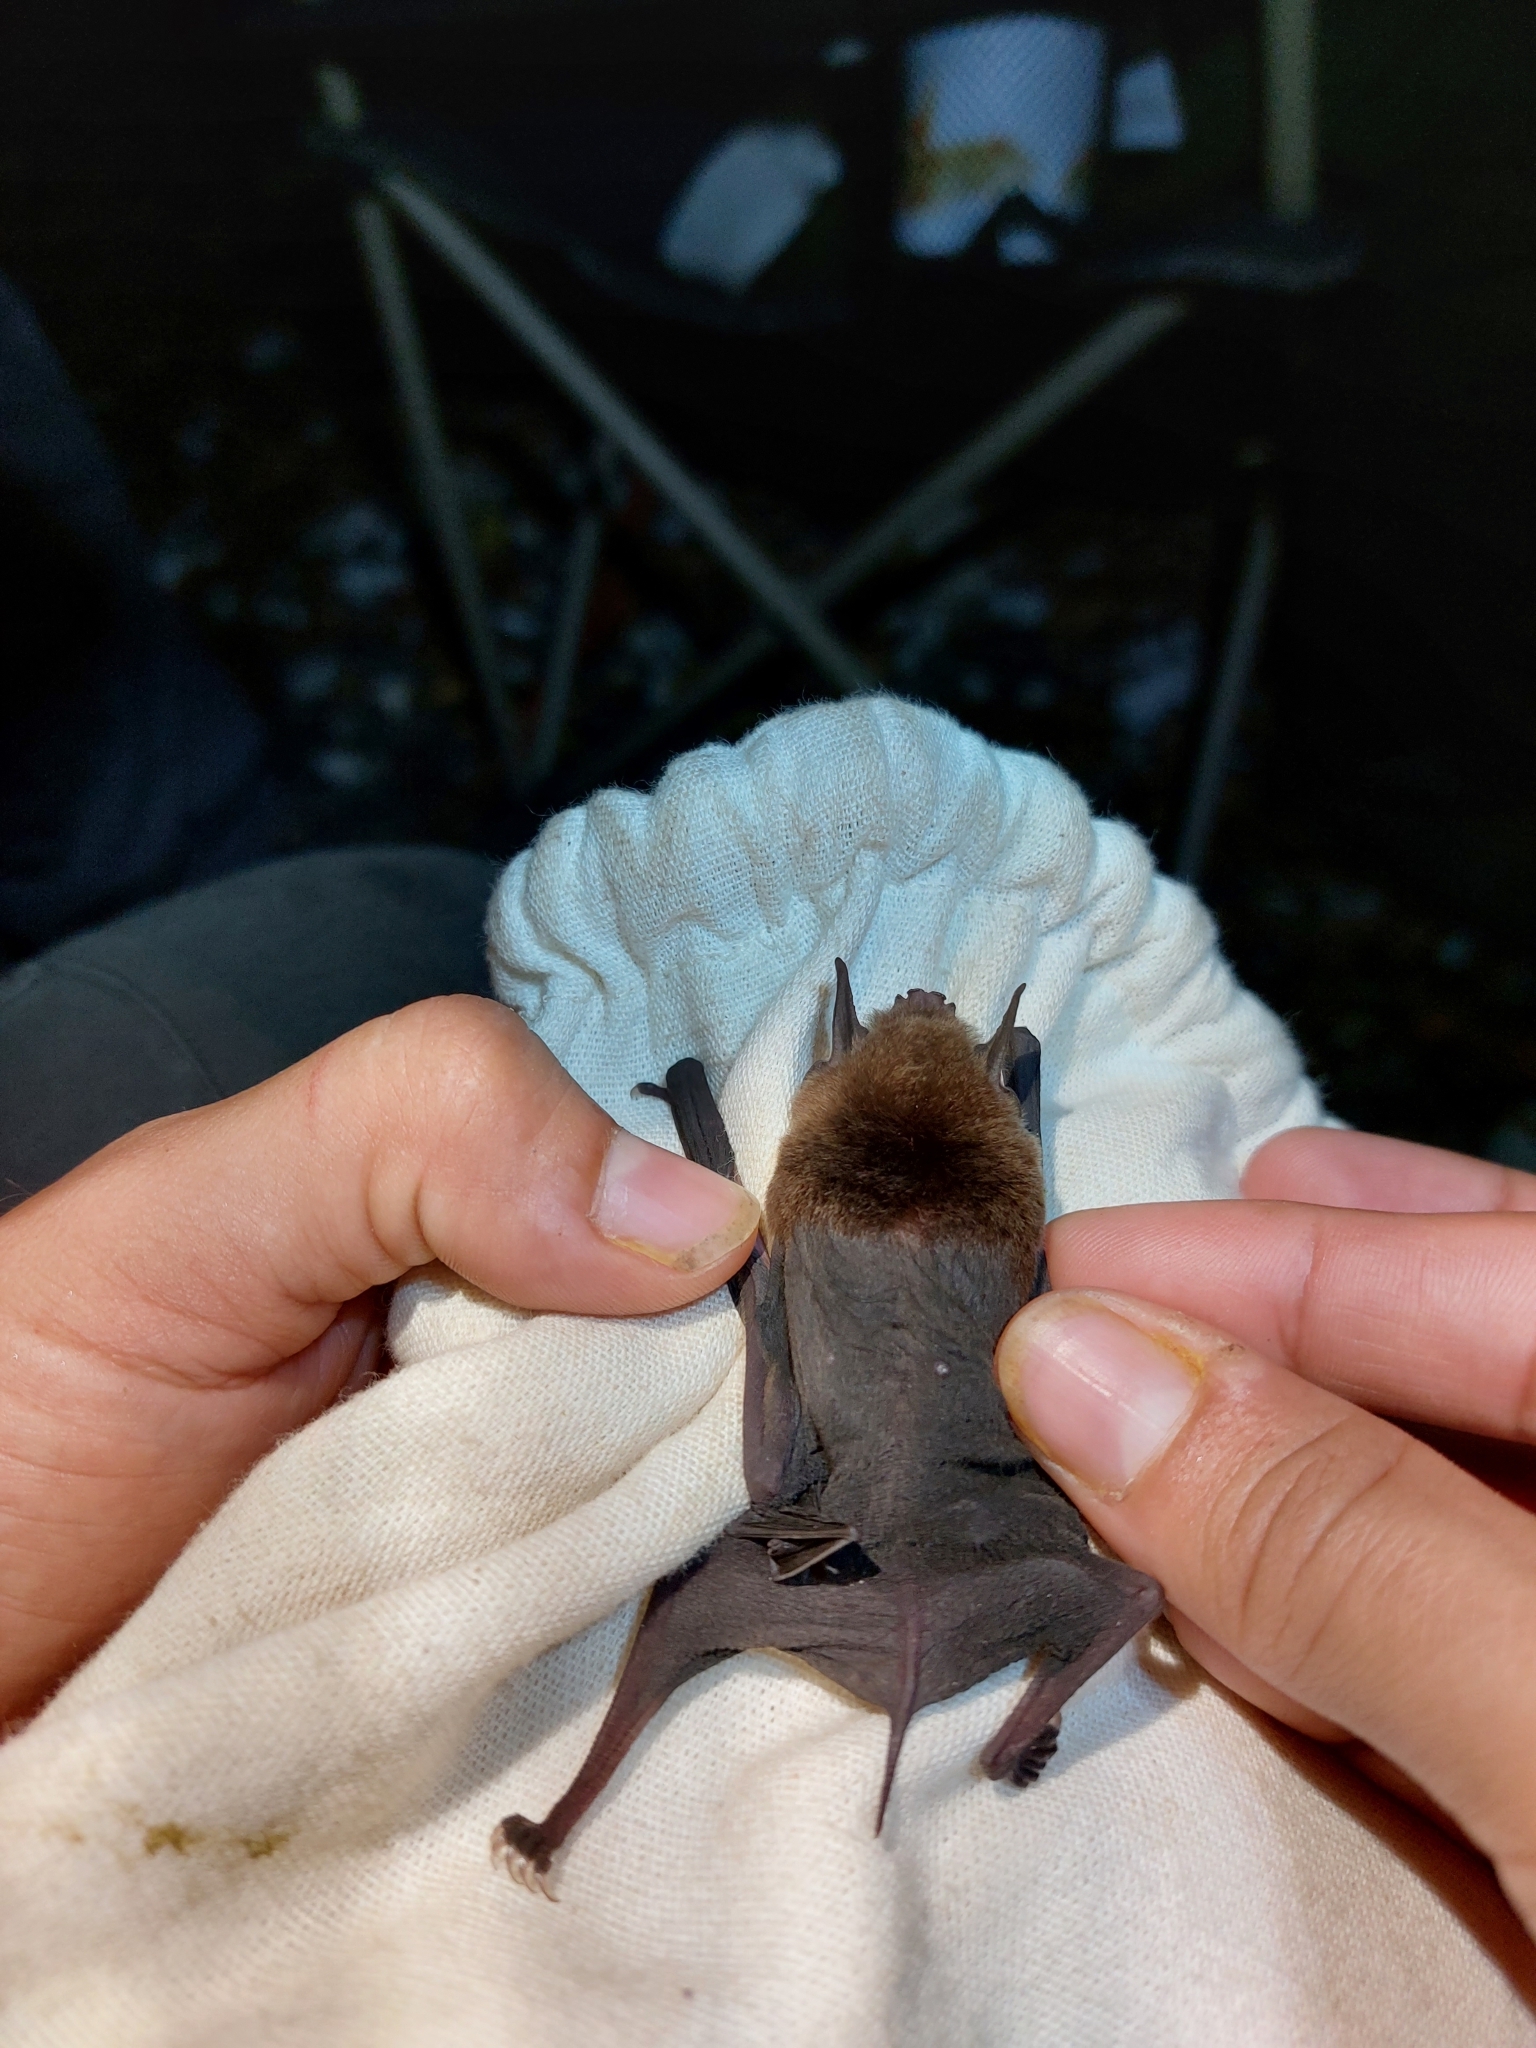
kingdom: Animalia
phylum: Chordata
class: Mammalia
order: Chiroptera
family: Mormoopidae
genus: Pteronotus
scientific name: Pteronotus fulvus
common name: Thomas's naked-backed bat
